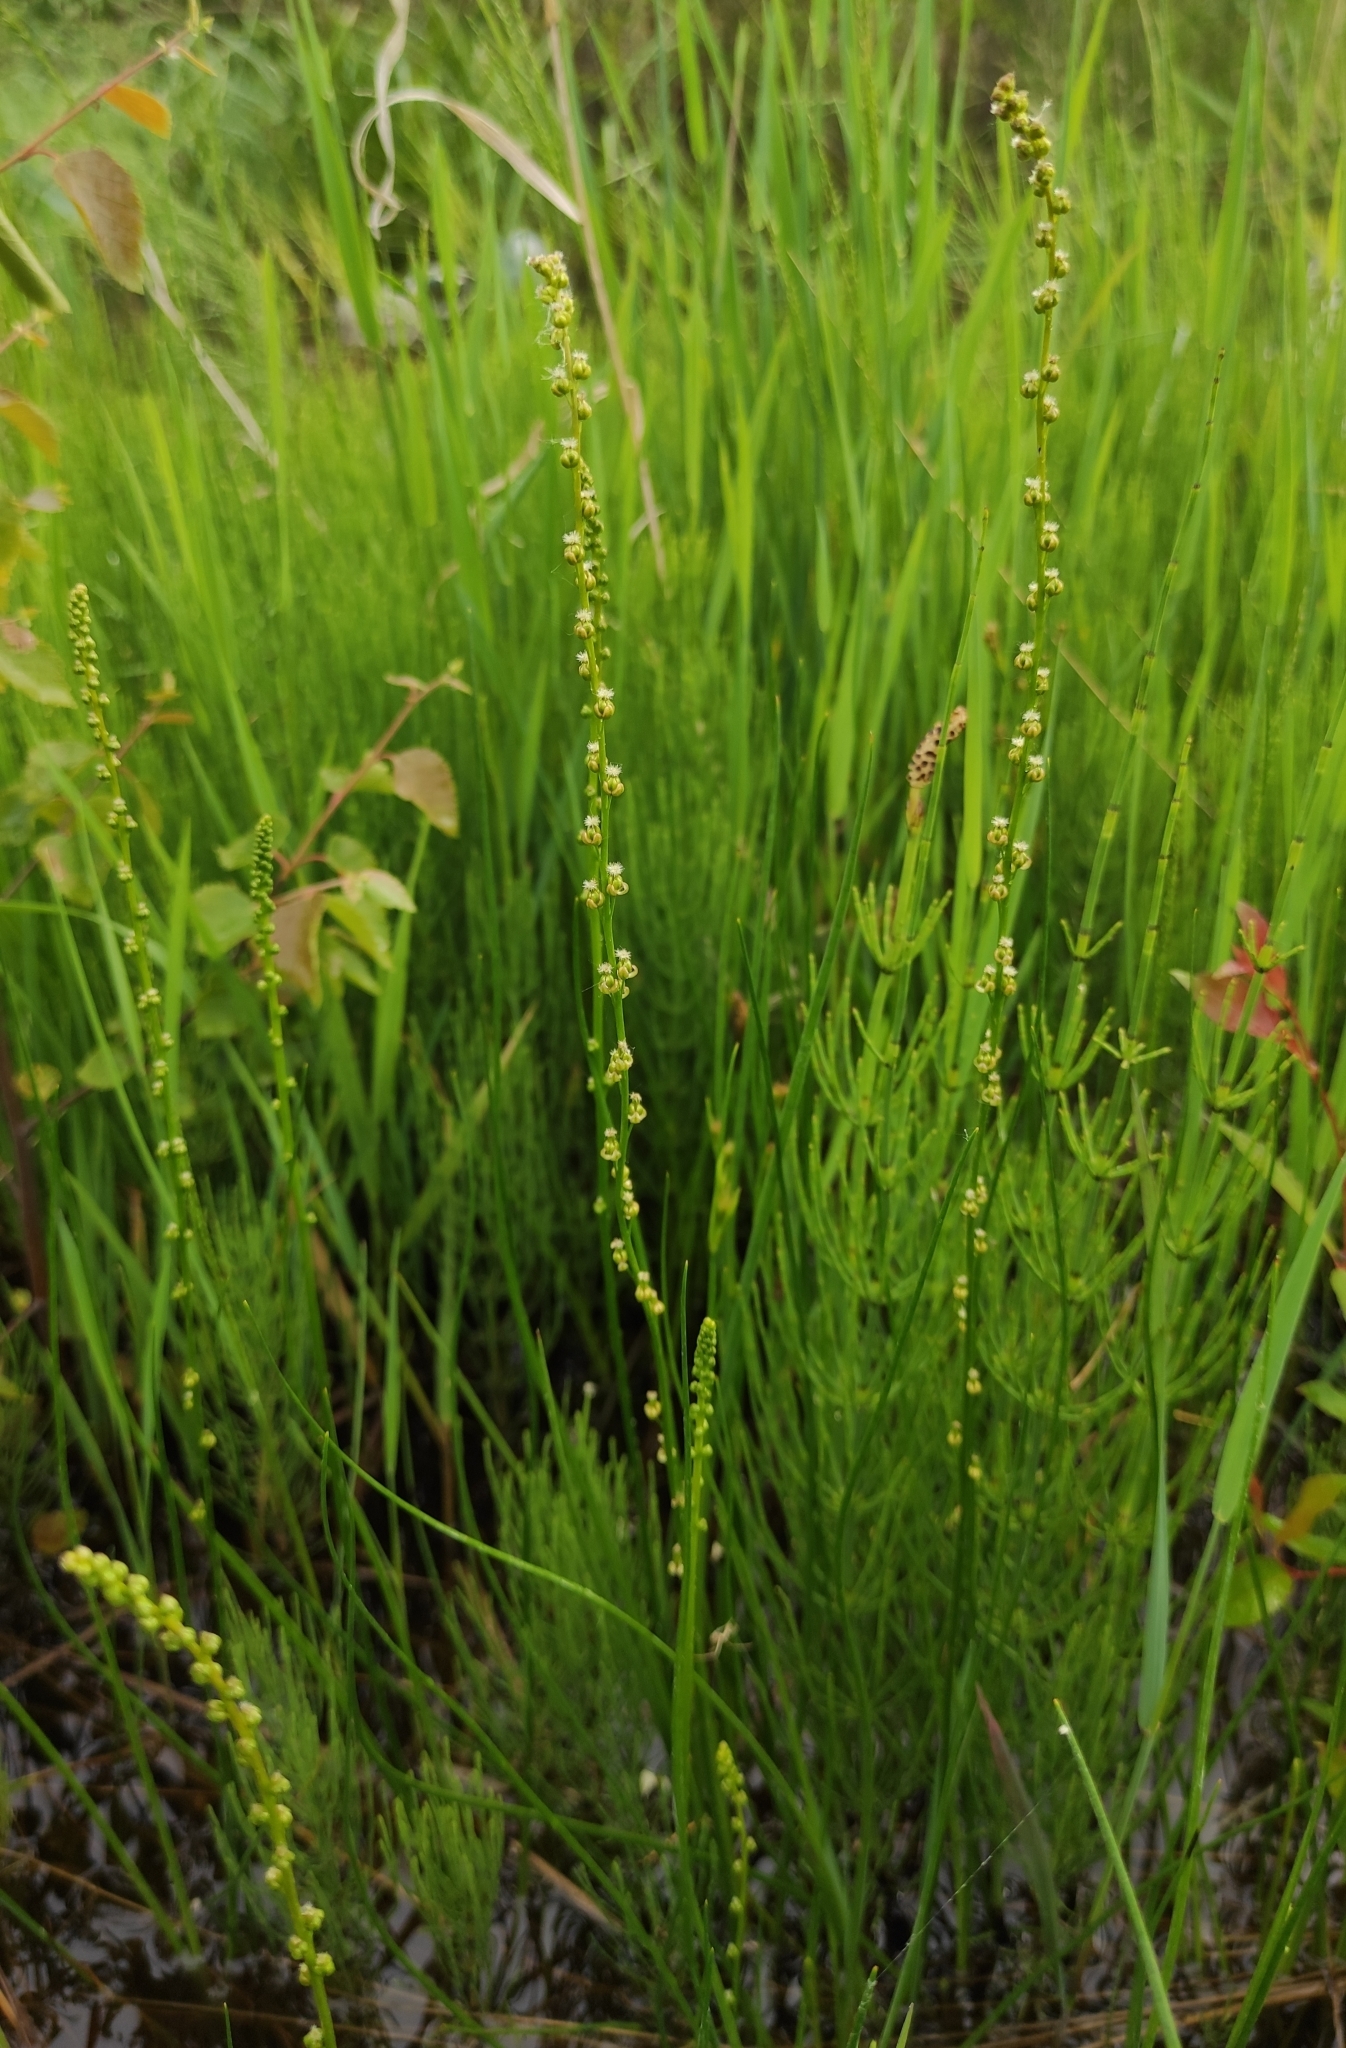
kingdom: Plantae
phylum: Tracheophyta
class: Liliopsida
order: Alismatales
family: Juncaginaceae
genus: Triglochin
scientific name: Triglochin palustris
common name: Marsh arrowgrass
